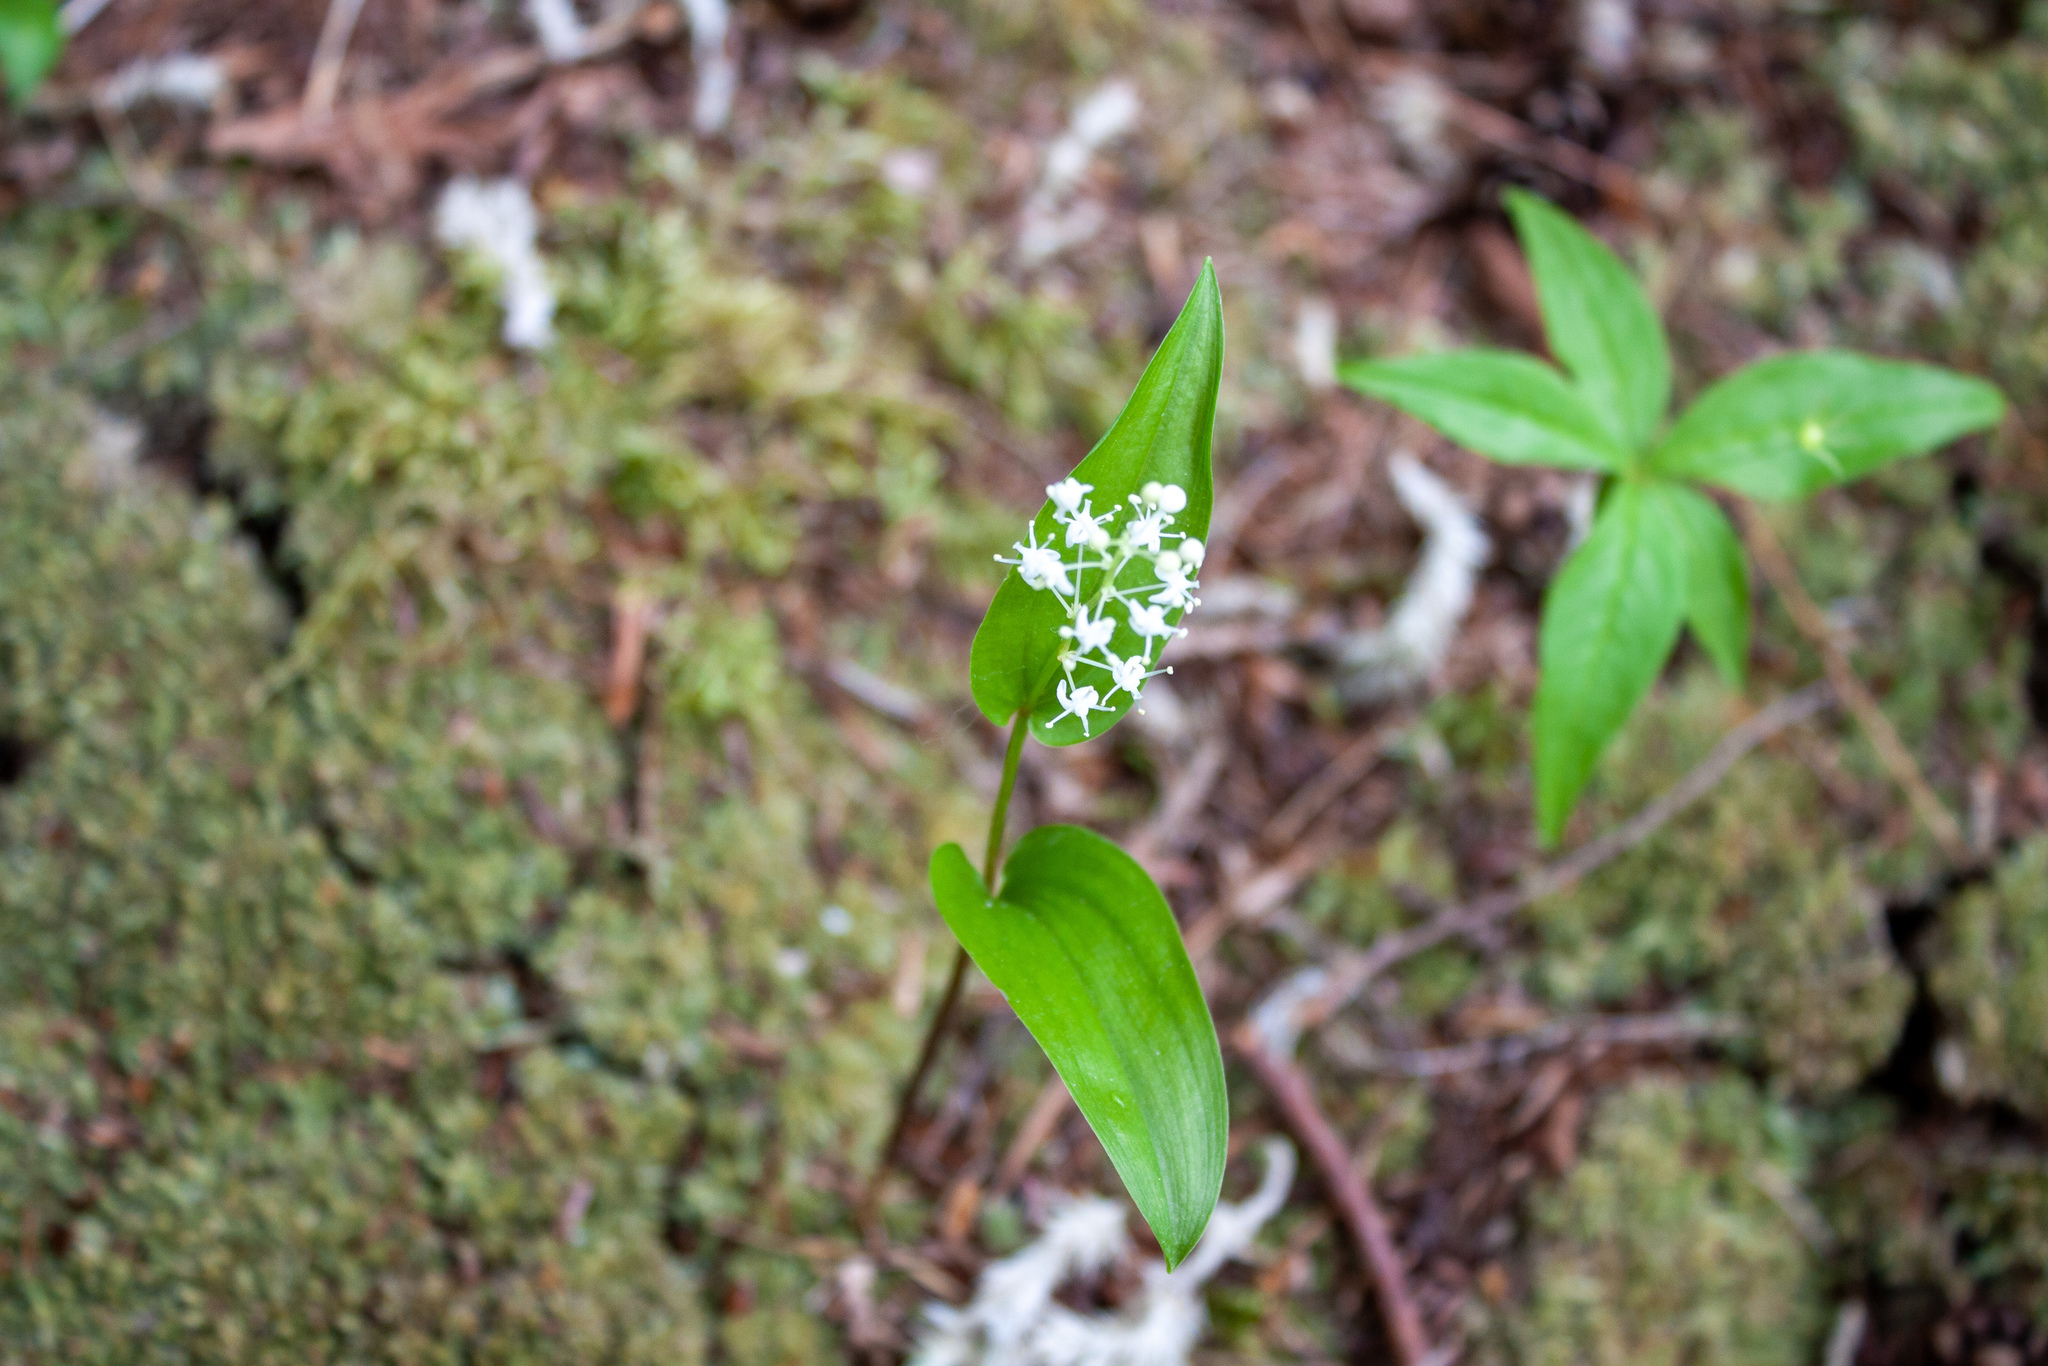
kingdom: Plantae
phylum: Tracheophyta
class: Liliopsida
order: Asparagales
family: Asparagaceae
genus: Maianthemum
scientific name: Maianthemum canadense
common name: False lily-of-the-valley
